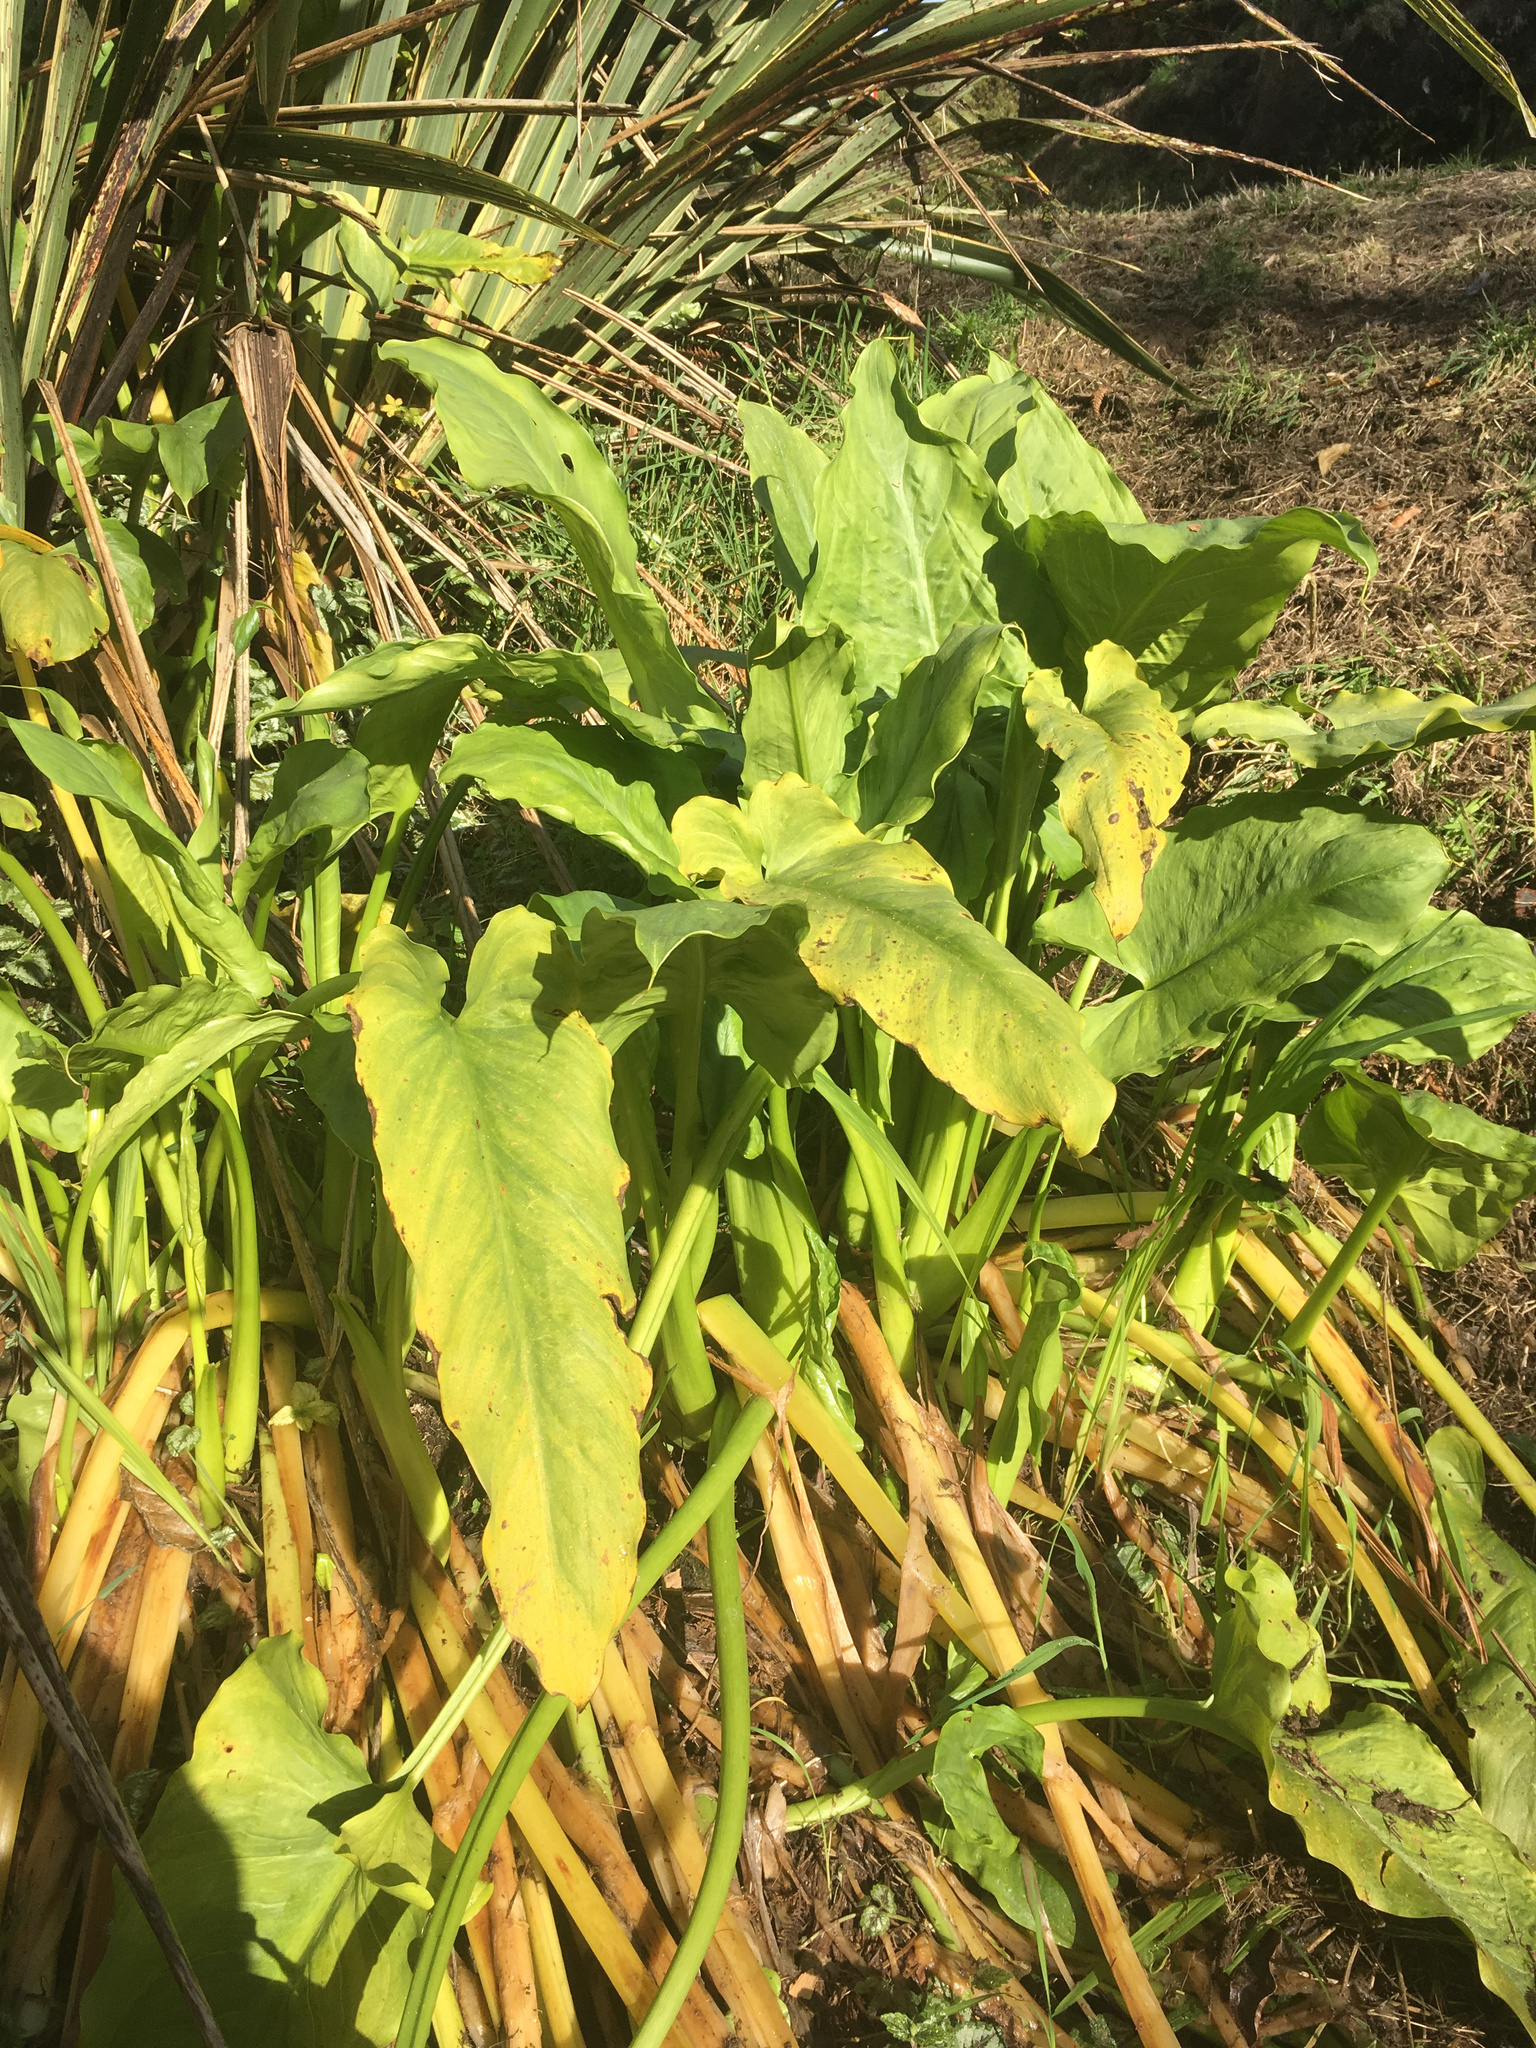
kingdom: Plantae
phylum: Tracheophyta
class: Liliopsida
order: Alismatales
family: Araceae
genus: Zantedeschia
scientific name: Zantedeschia aethiopica
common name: Altar-lily
